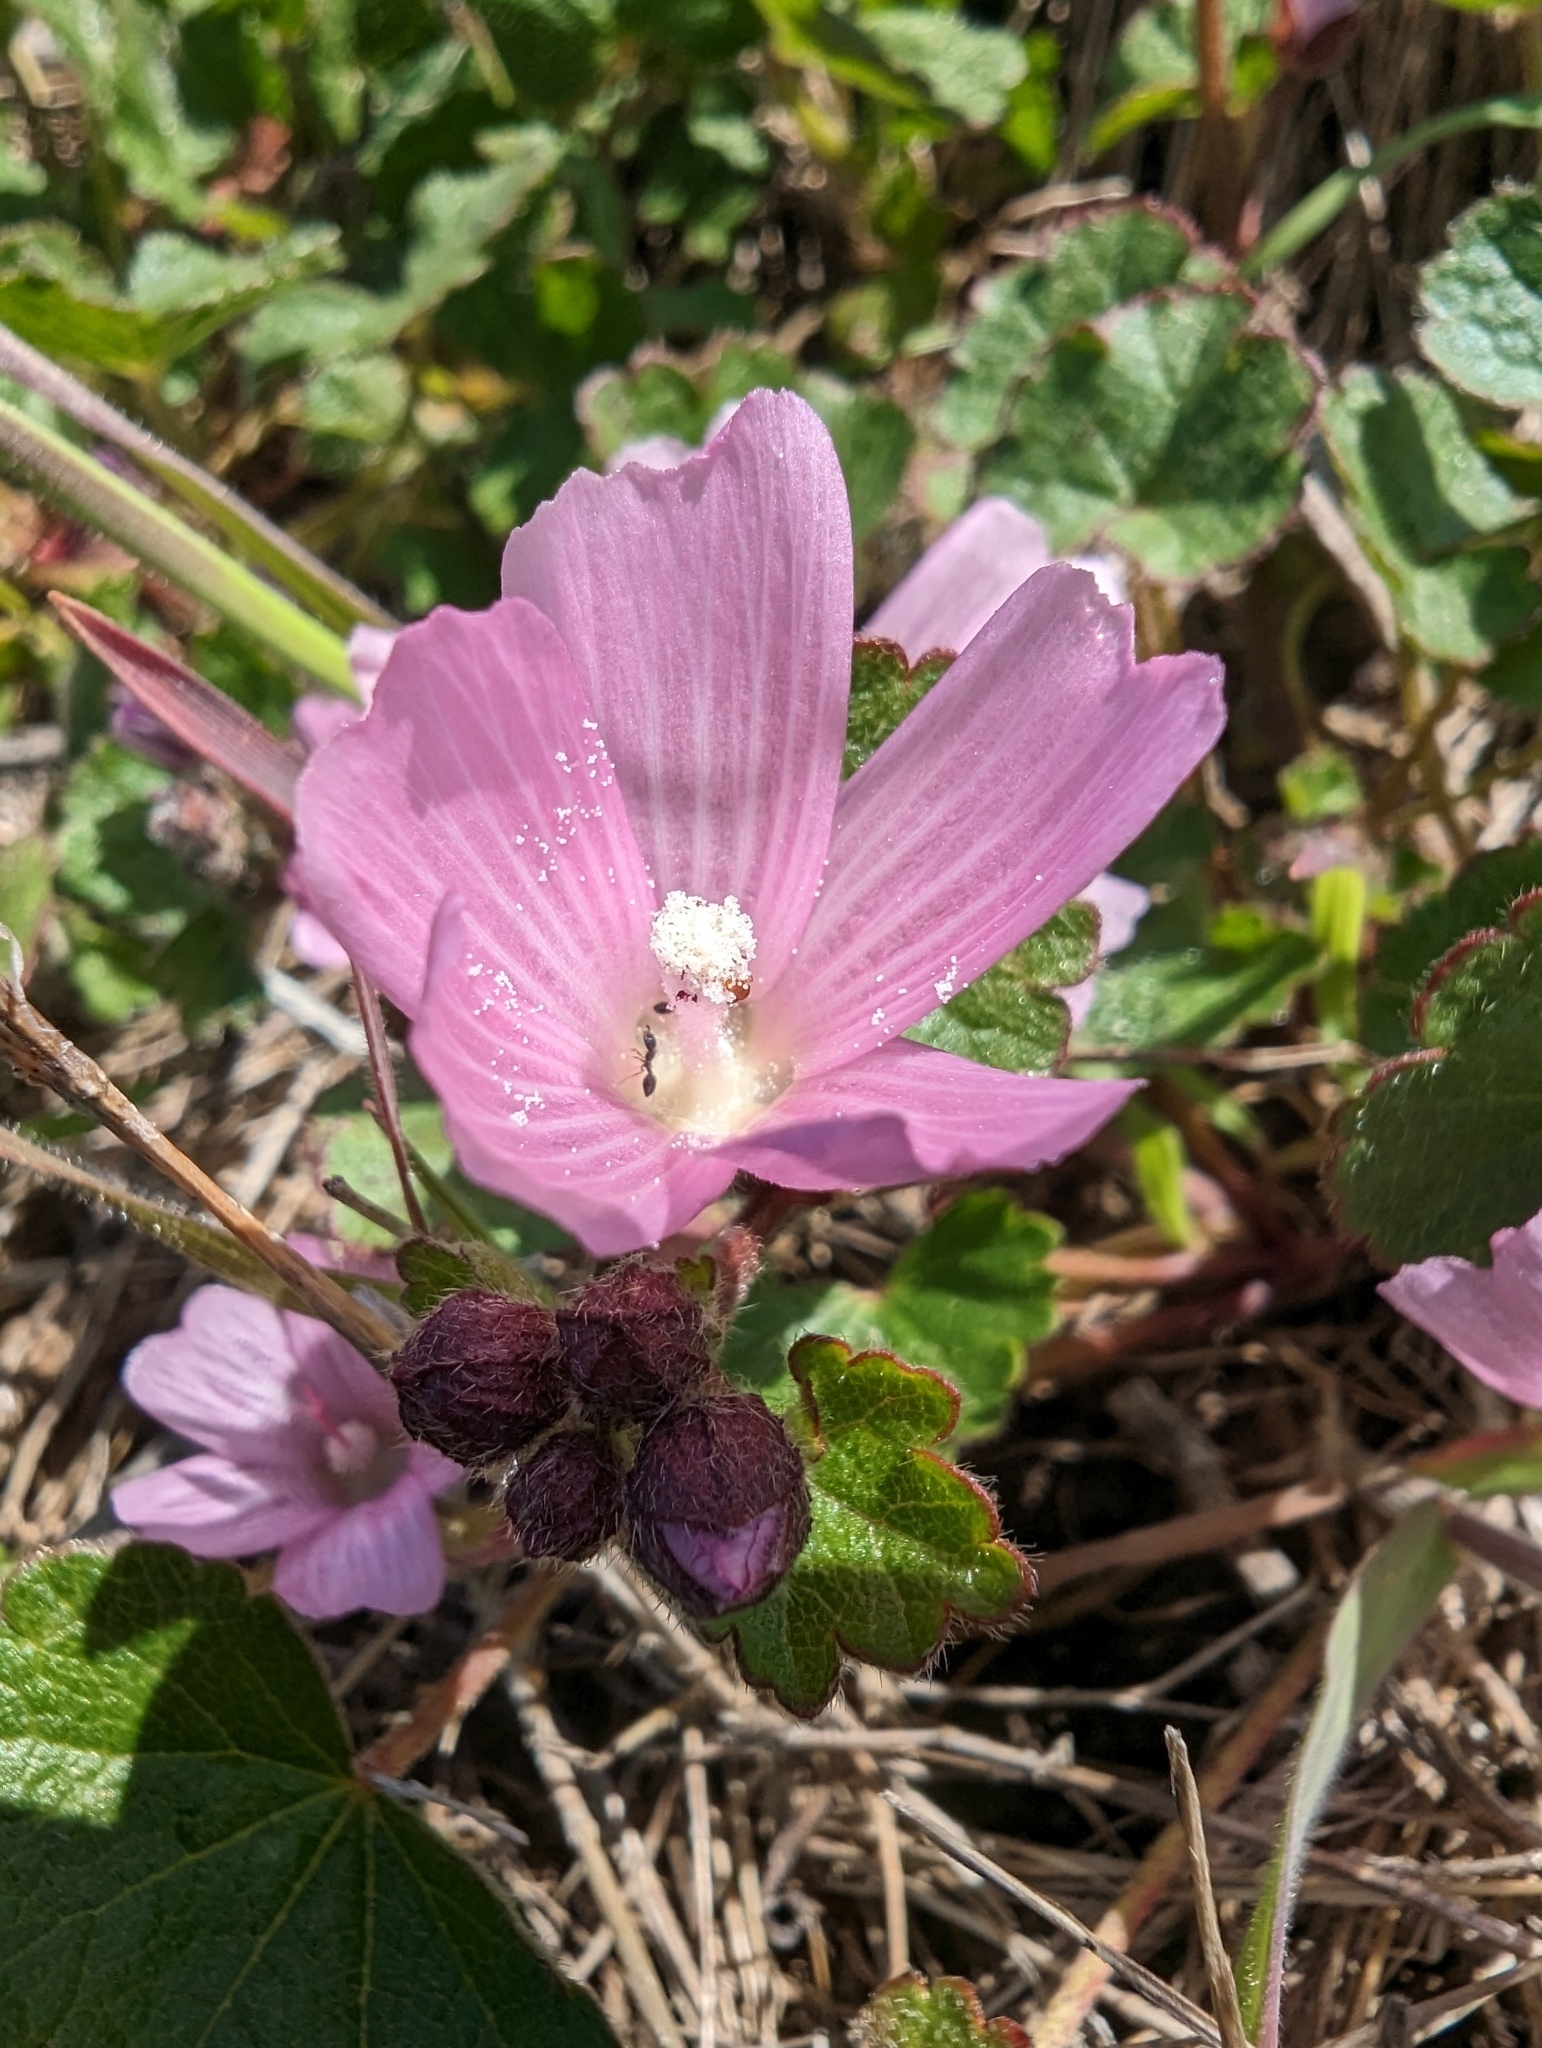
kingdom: Plantae
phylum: Tracheophyta
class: Magnoliopsida
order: Malvales
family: Malvaceae
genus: Sidalcea
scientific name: Sidalcea malviflora
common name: Greek mallow
